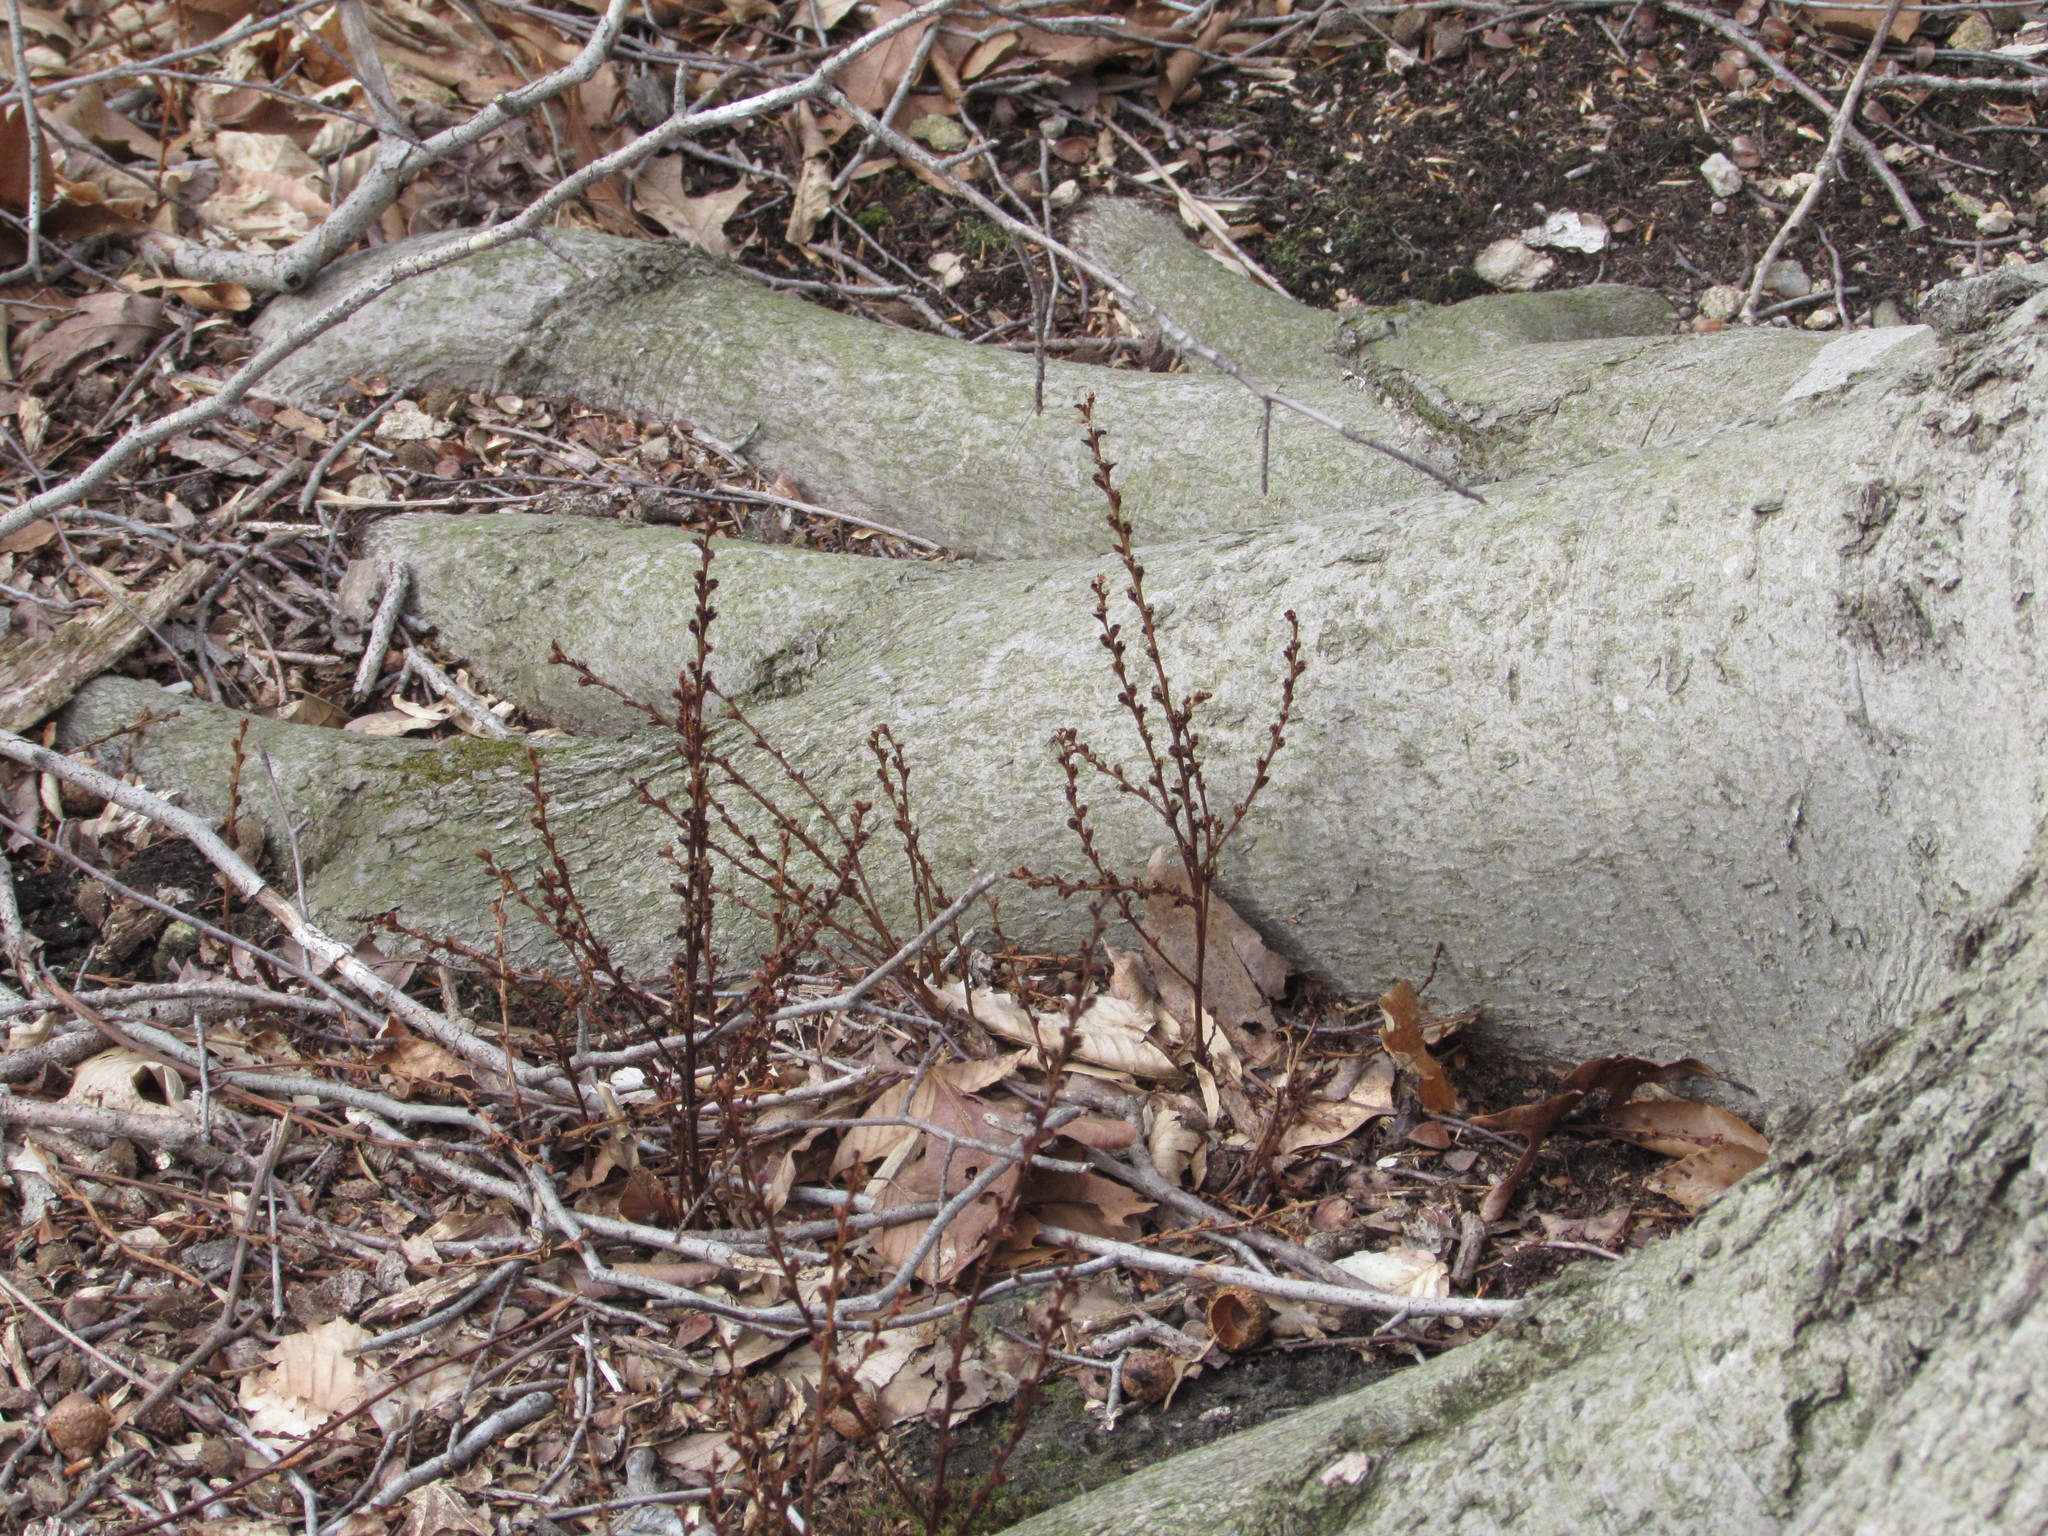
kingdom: Plantae
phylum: Tracheophyta
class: Magnoliopsida
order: Lamiales
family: Orobanchaceae
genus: Epifagus
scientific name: Epifagus virginiana
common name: Beechdrops
